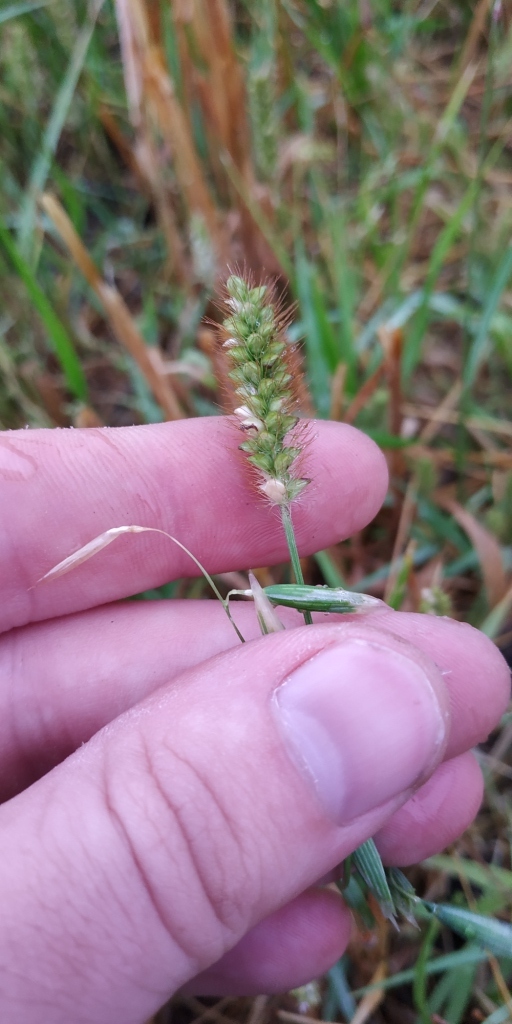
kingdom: Plantae
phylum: Tracheophyta
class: Liliopsida
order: Poales
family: Poaceae
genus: Setaria
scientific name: Setaria pumila
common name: Yellow bristle-grass
